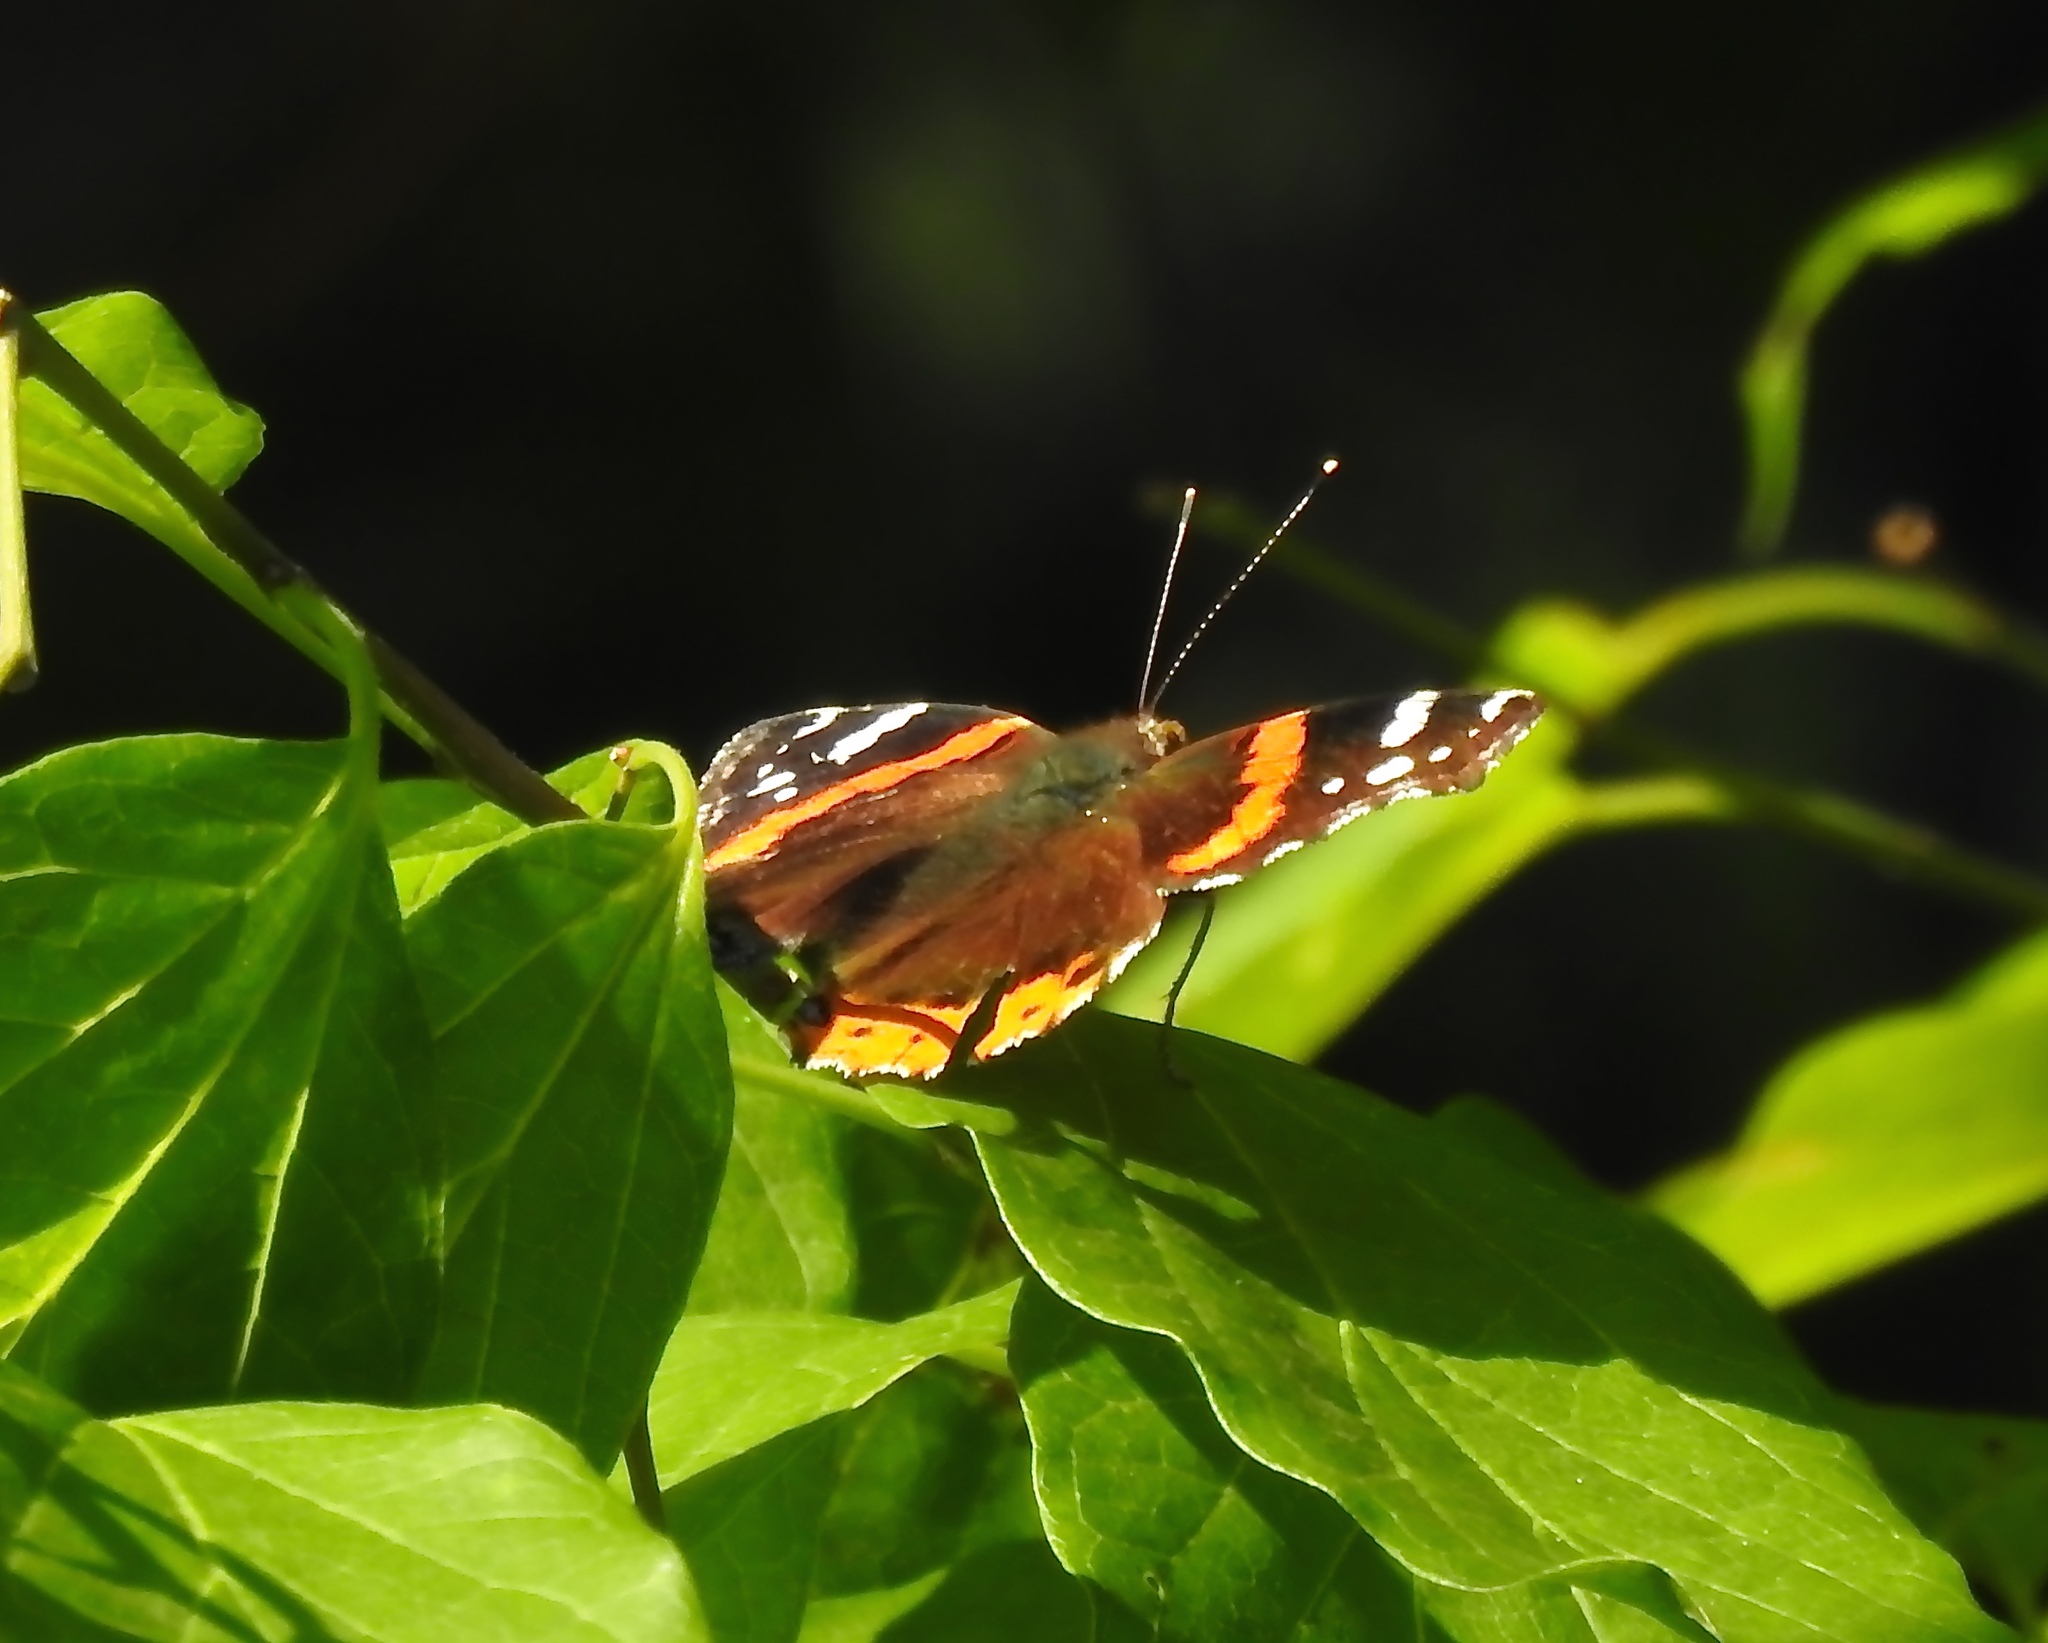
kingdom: Animalia
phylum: Arthropoda
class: Insecta
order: Lepidoptera
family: Nymphalidae
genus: Vanessa
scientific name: Vanessa atalanta
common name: Red admiral
